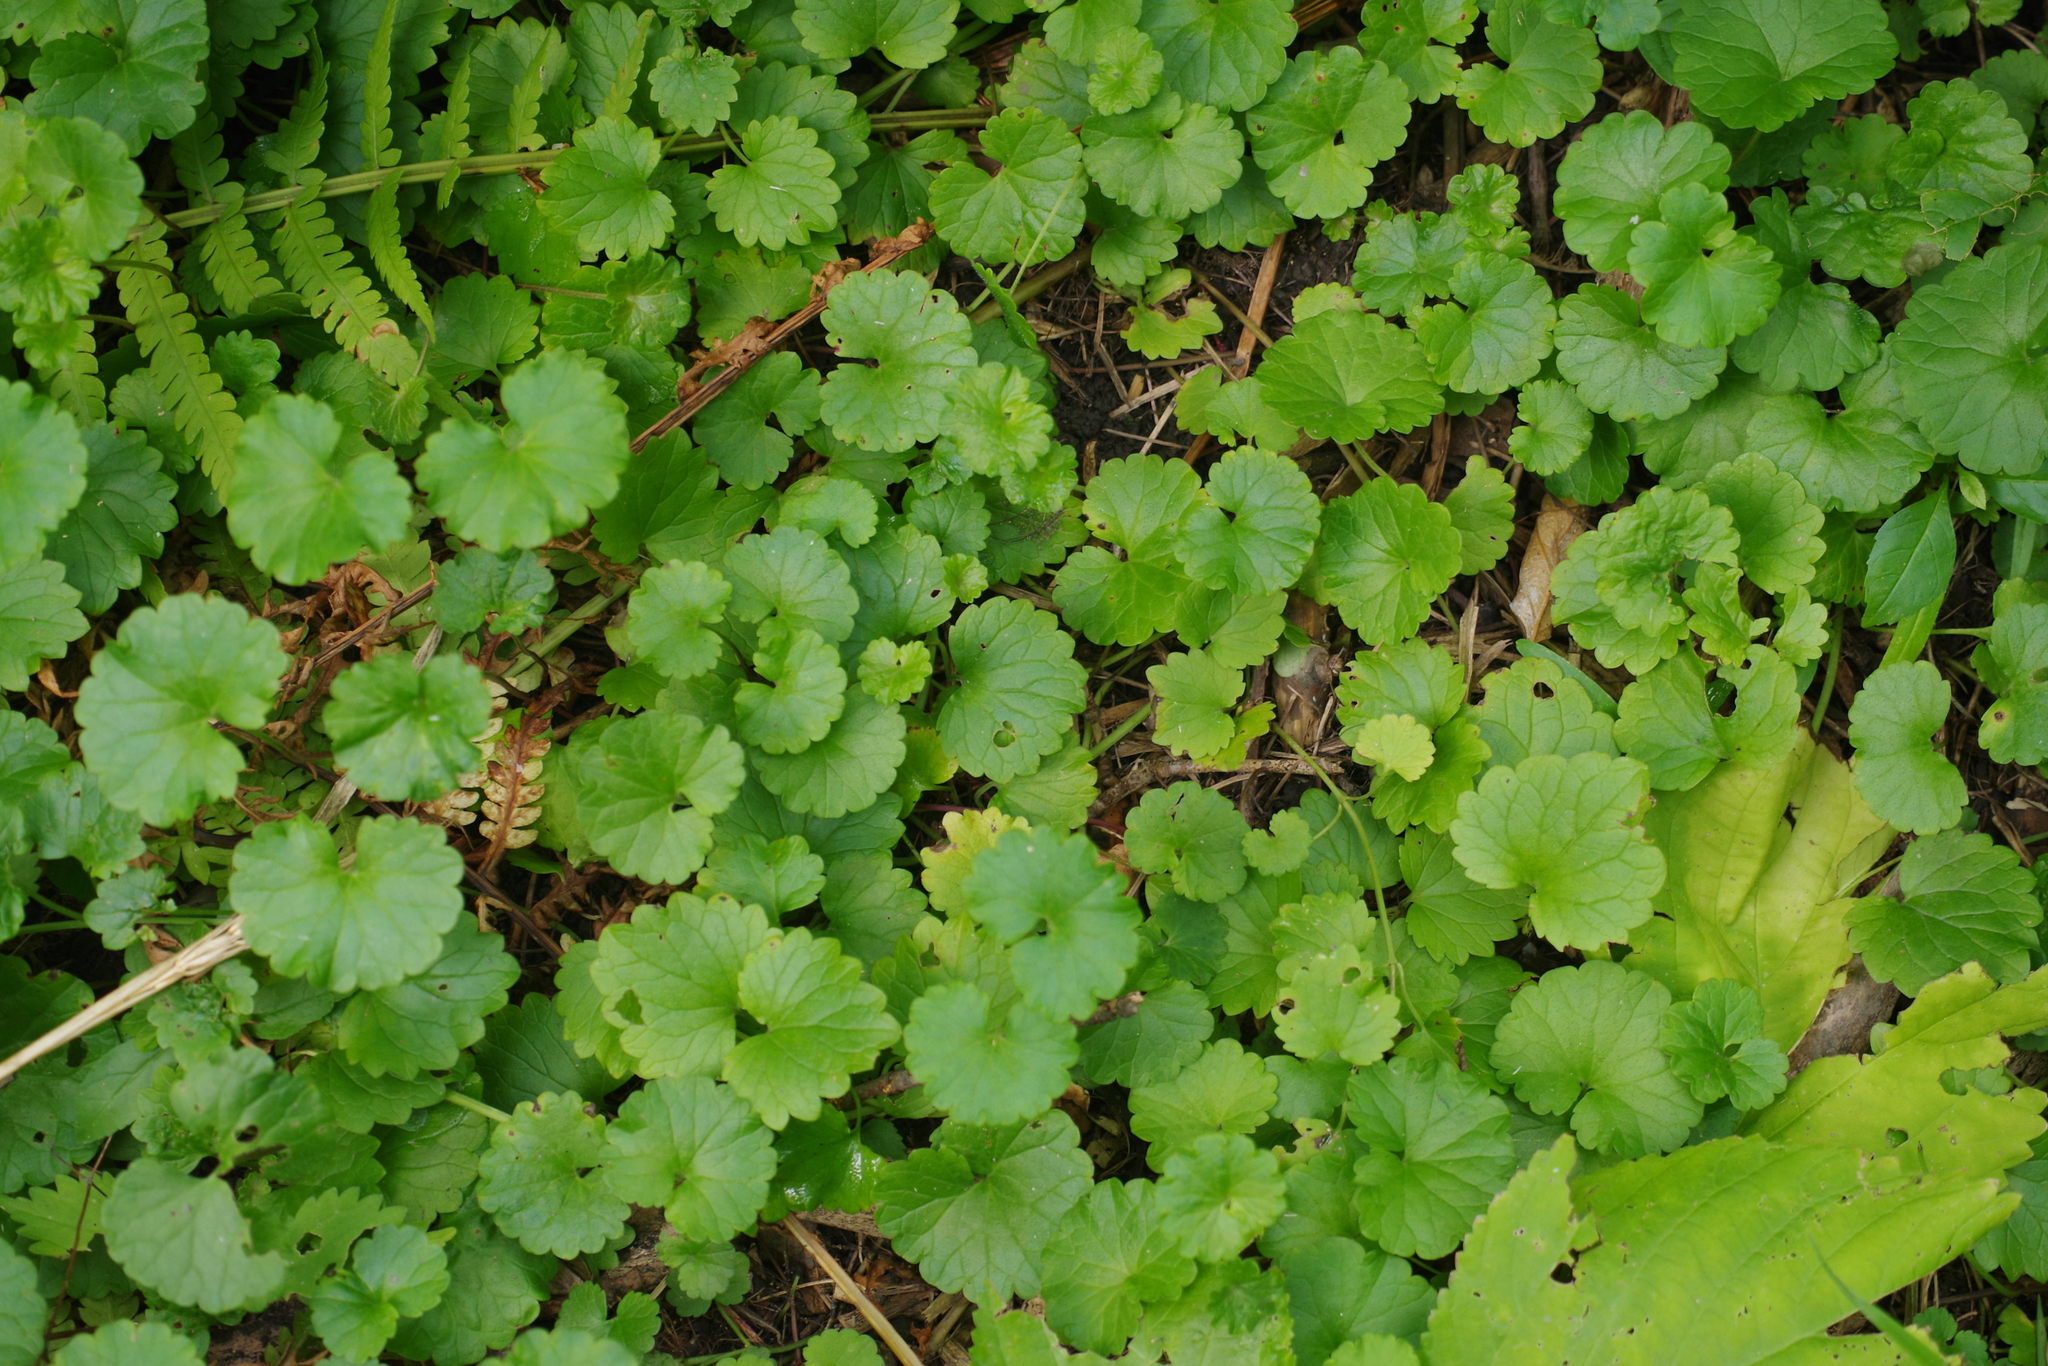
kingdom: Plantae
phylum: Tracheophyta
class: Magnoliopsida
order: Lamiales
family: Lamiaceae
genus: Glechoma
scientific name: Glechoma hederacea
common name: Ground ivy
